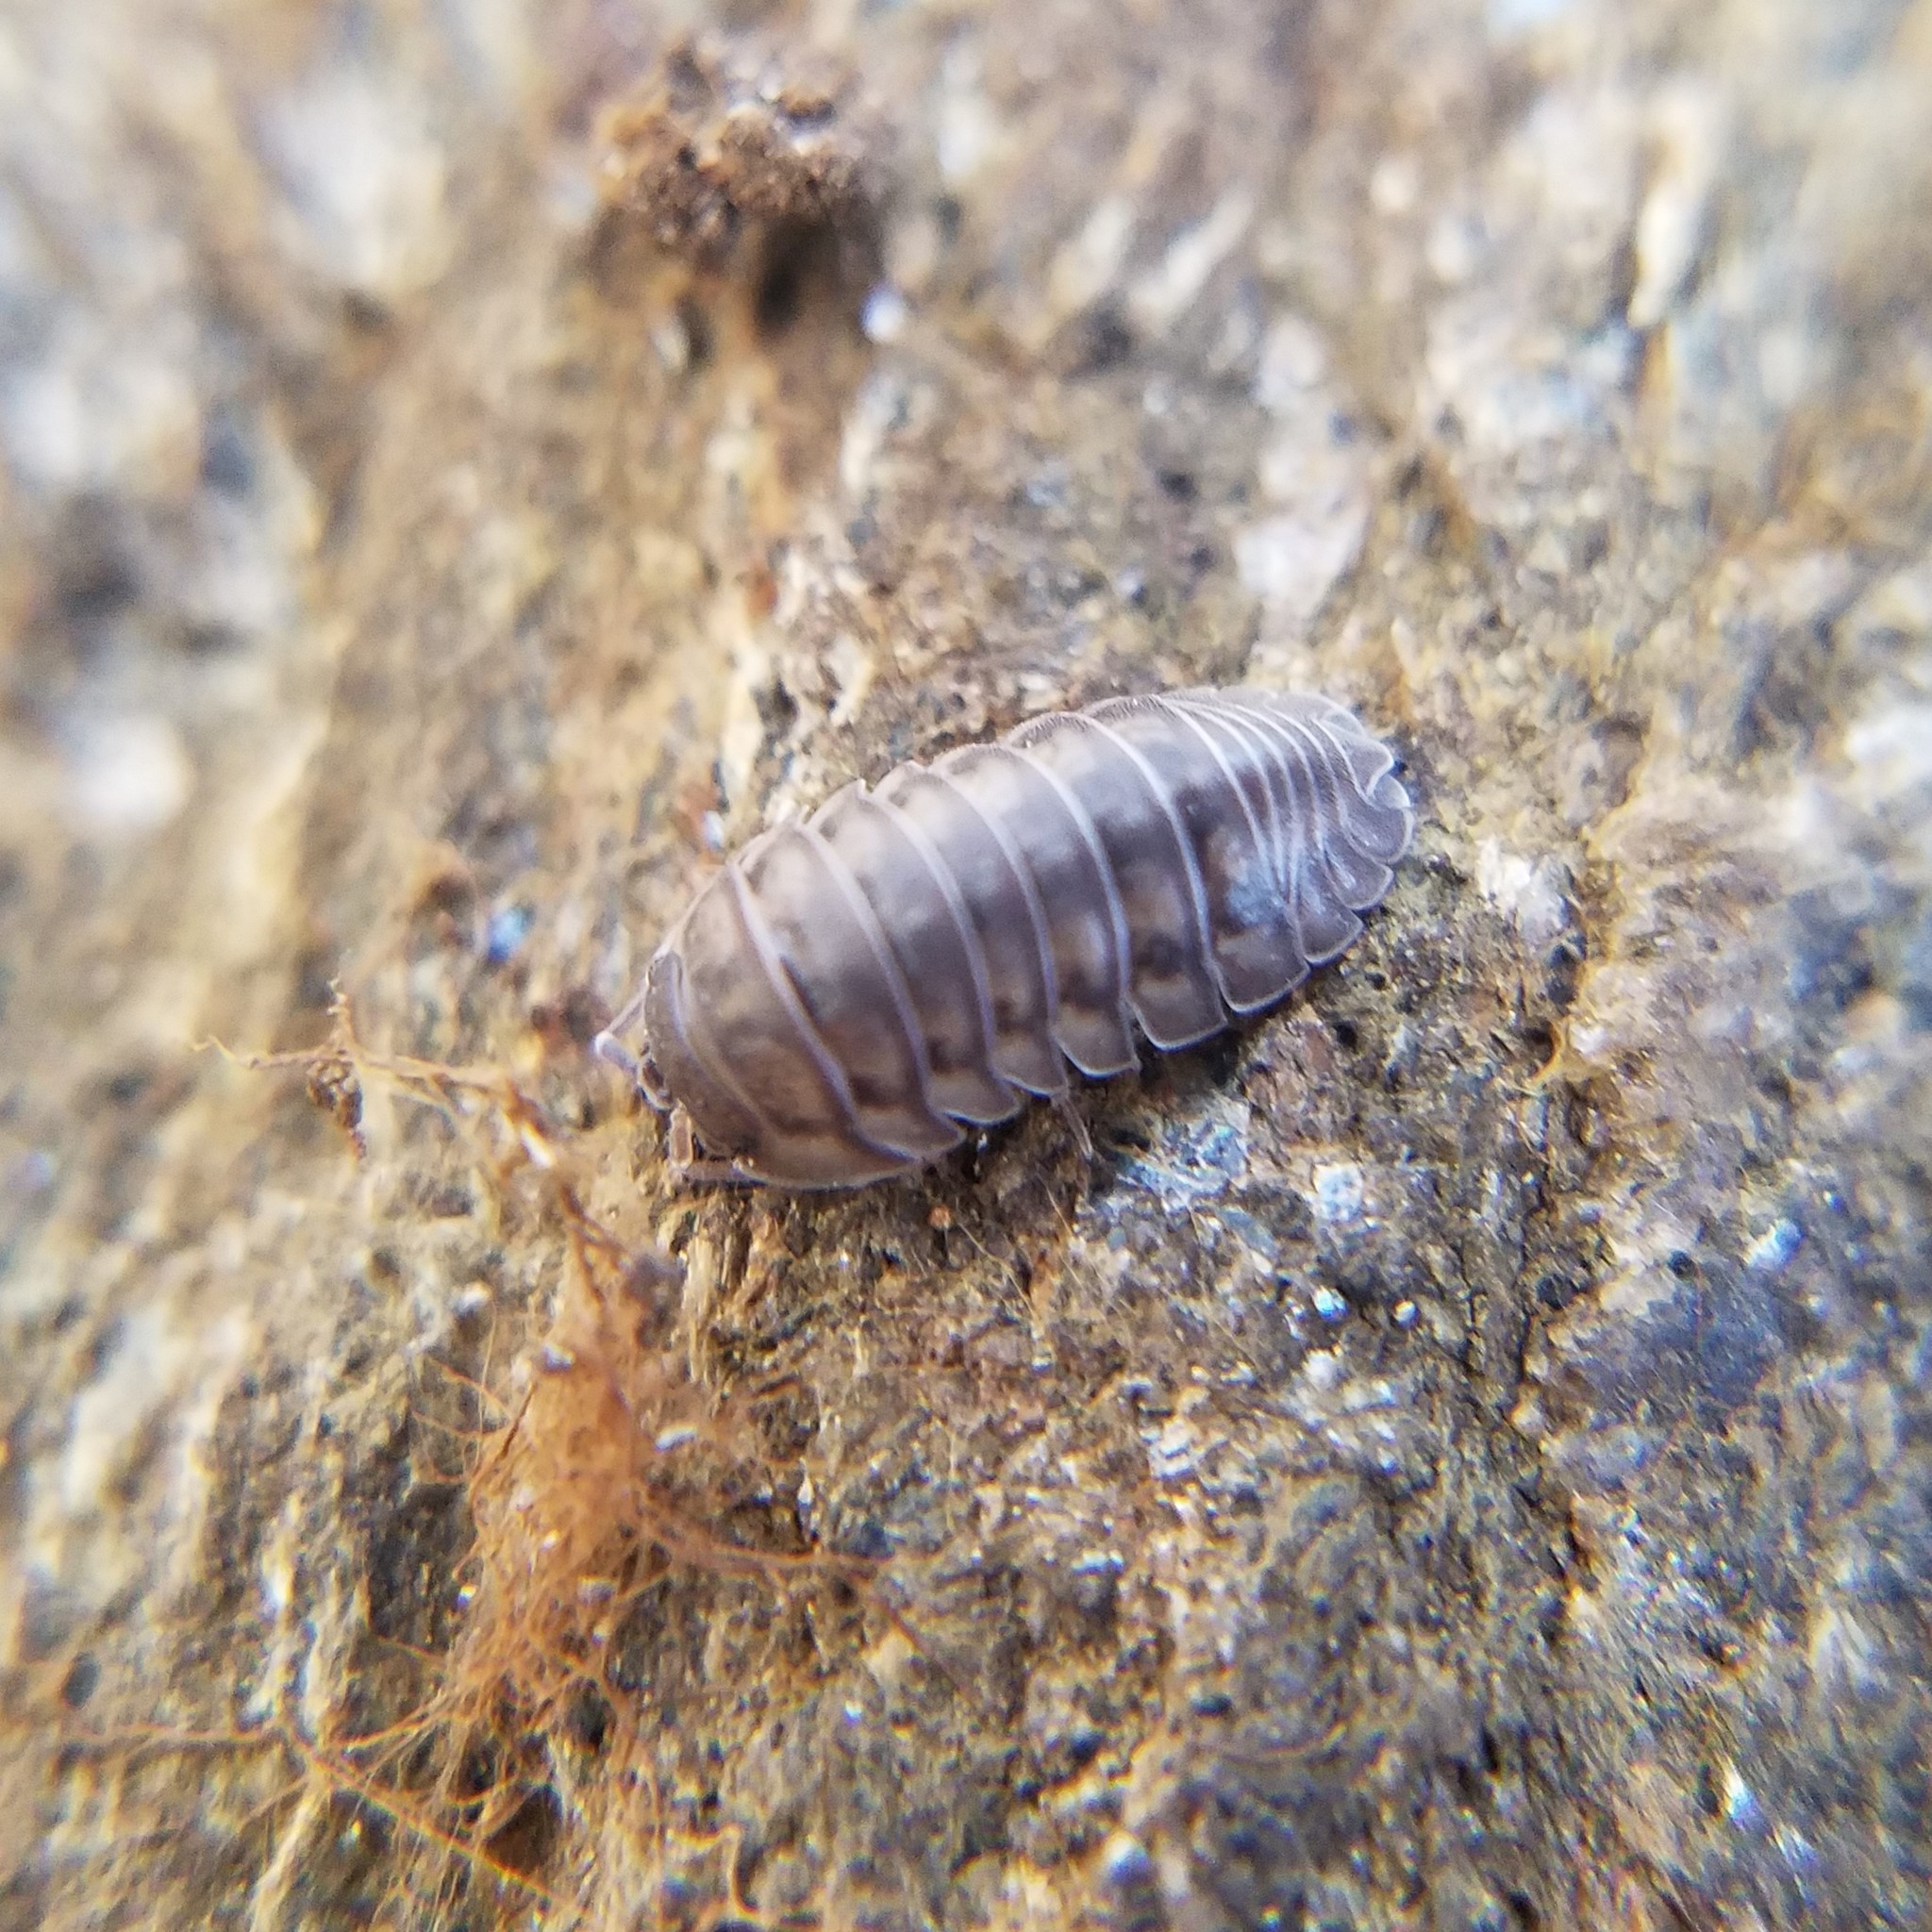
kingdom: Animalia
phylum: Arthropoda
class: Malacostraca
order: Isopoda
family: Armadillidiidae
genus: Armadillidium
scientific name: Armadillidium nasatum
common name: Isopod
